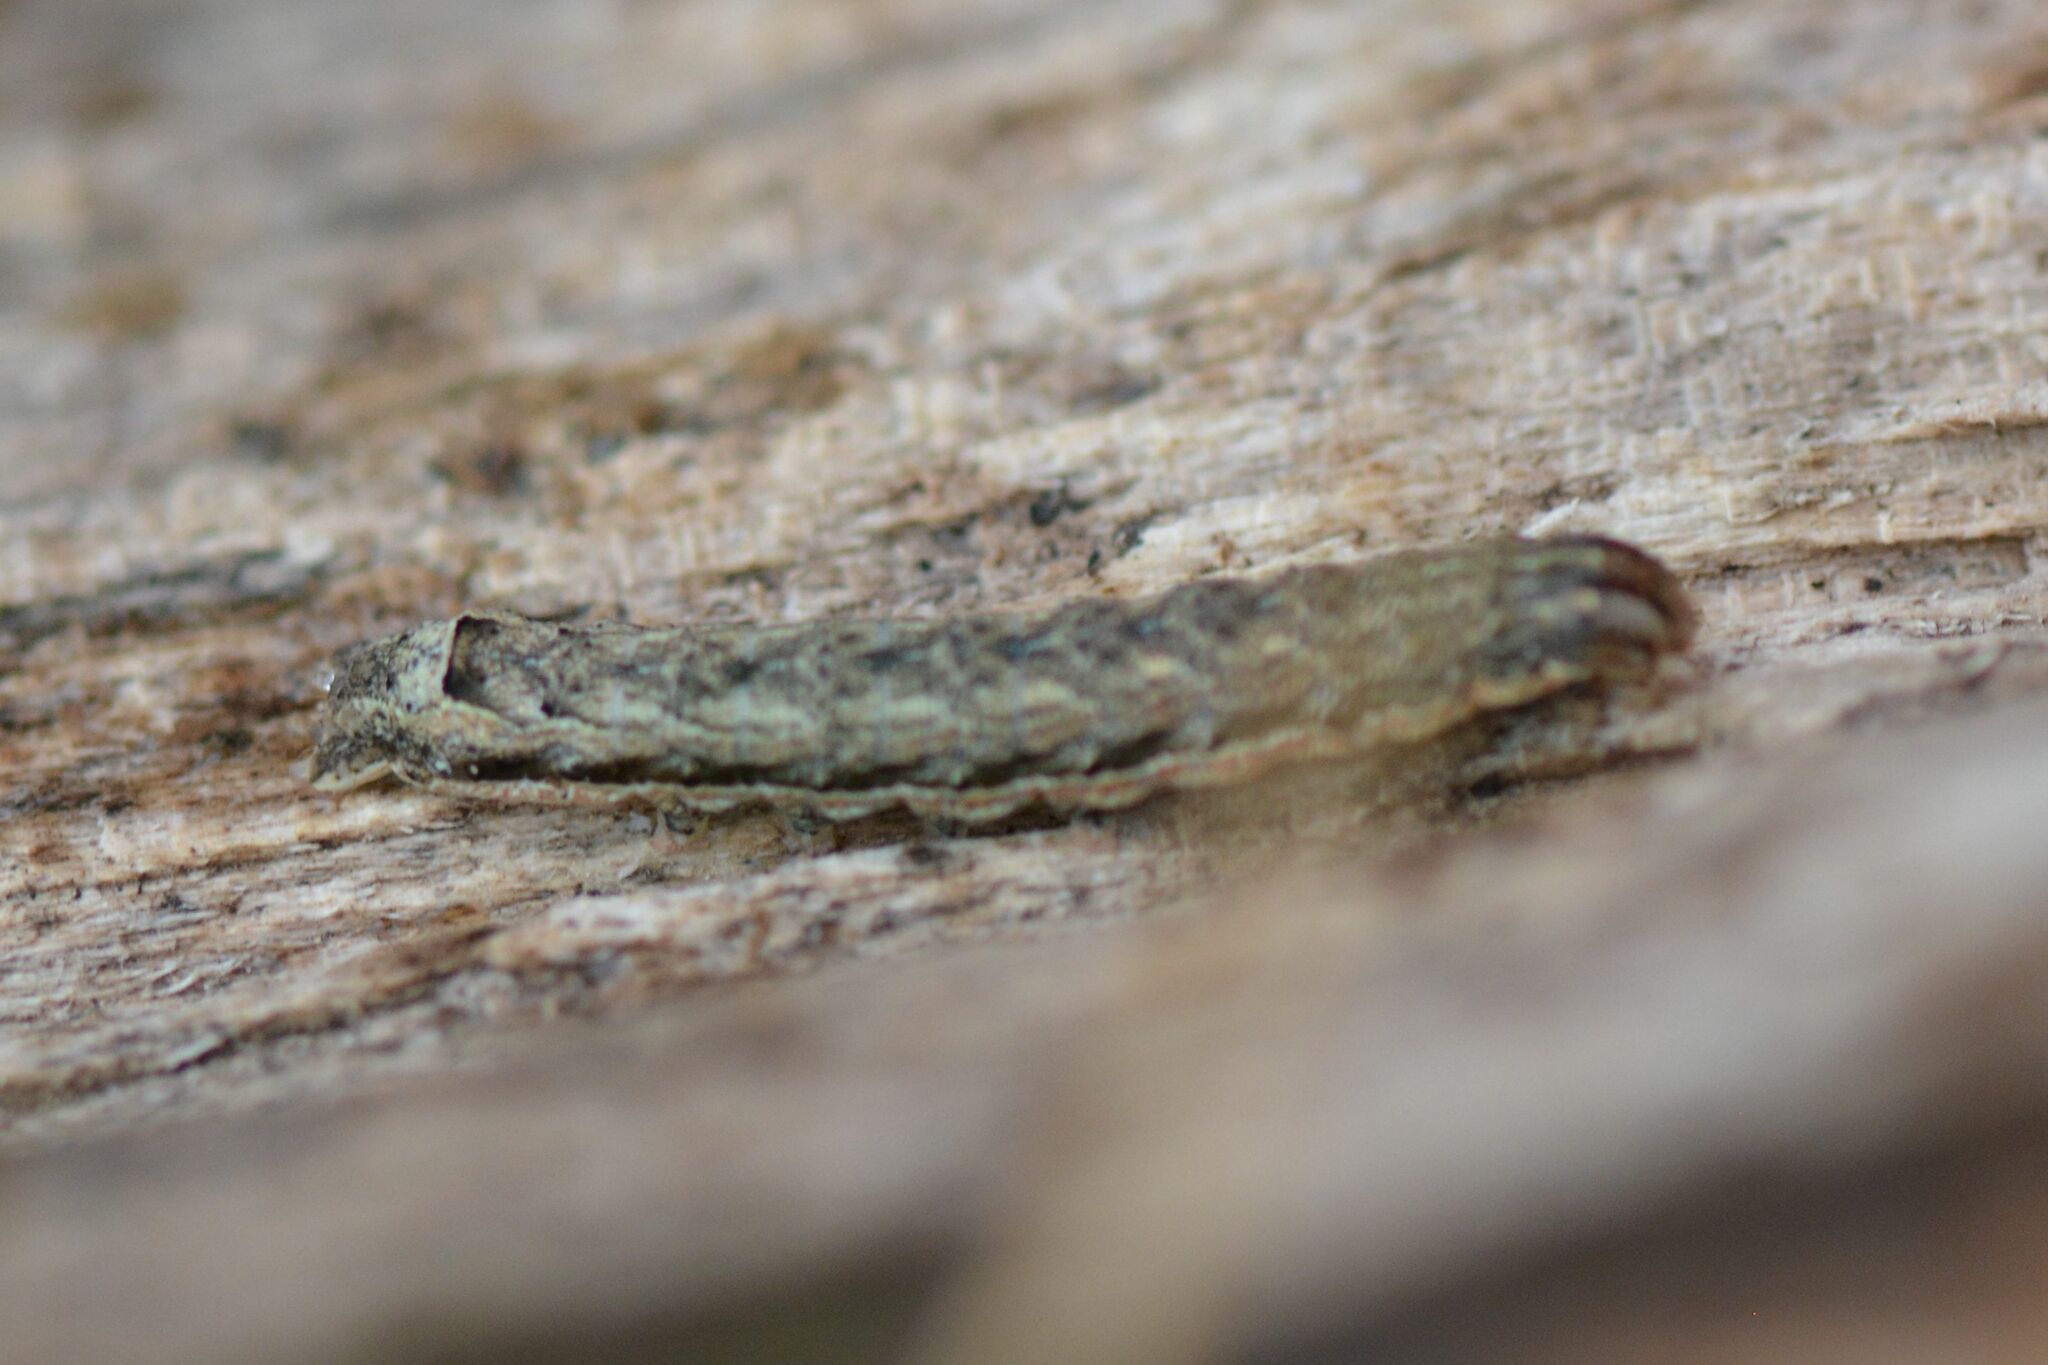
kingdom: Animalia
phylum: Arthropoda
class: Insecta
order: Lepidoptera
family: Noctuidae
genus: Noctua
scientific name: Noctua comes
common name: Lesser yellow underwing
